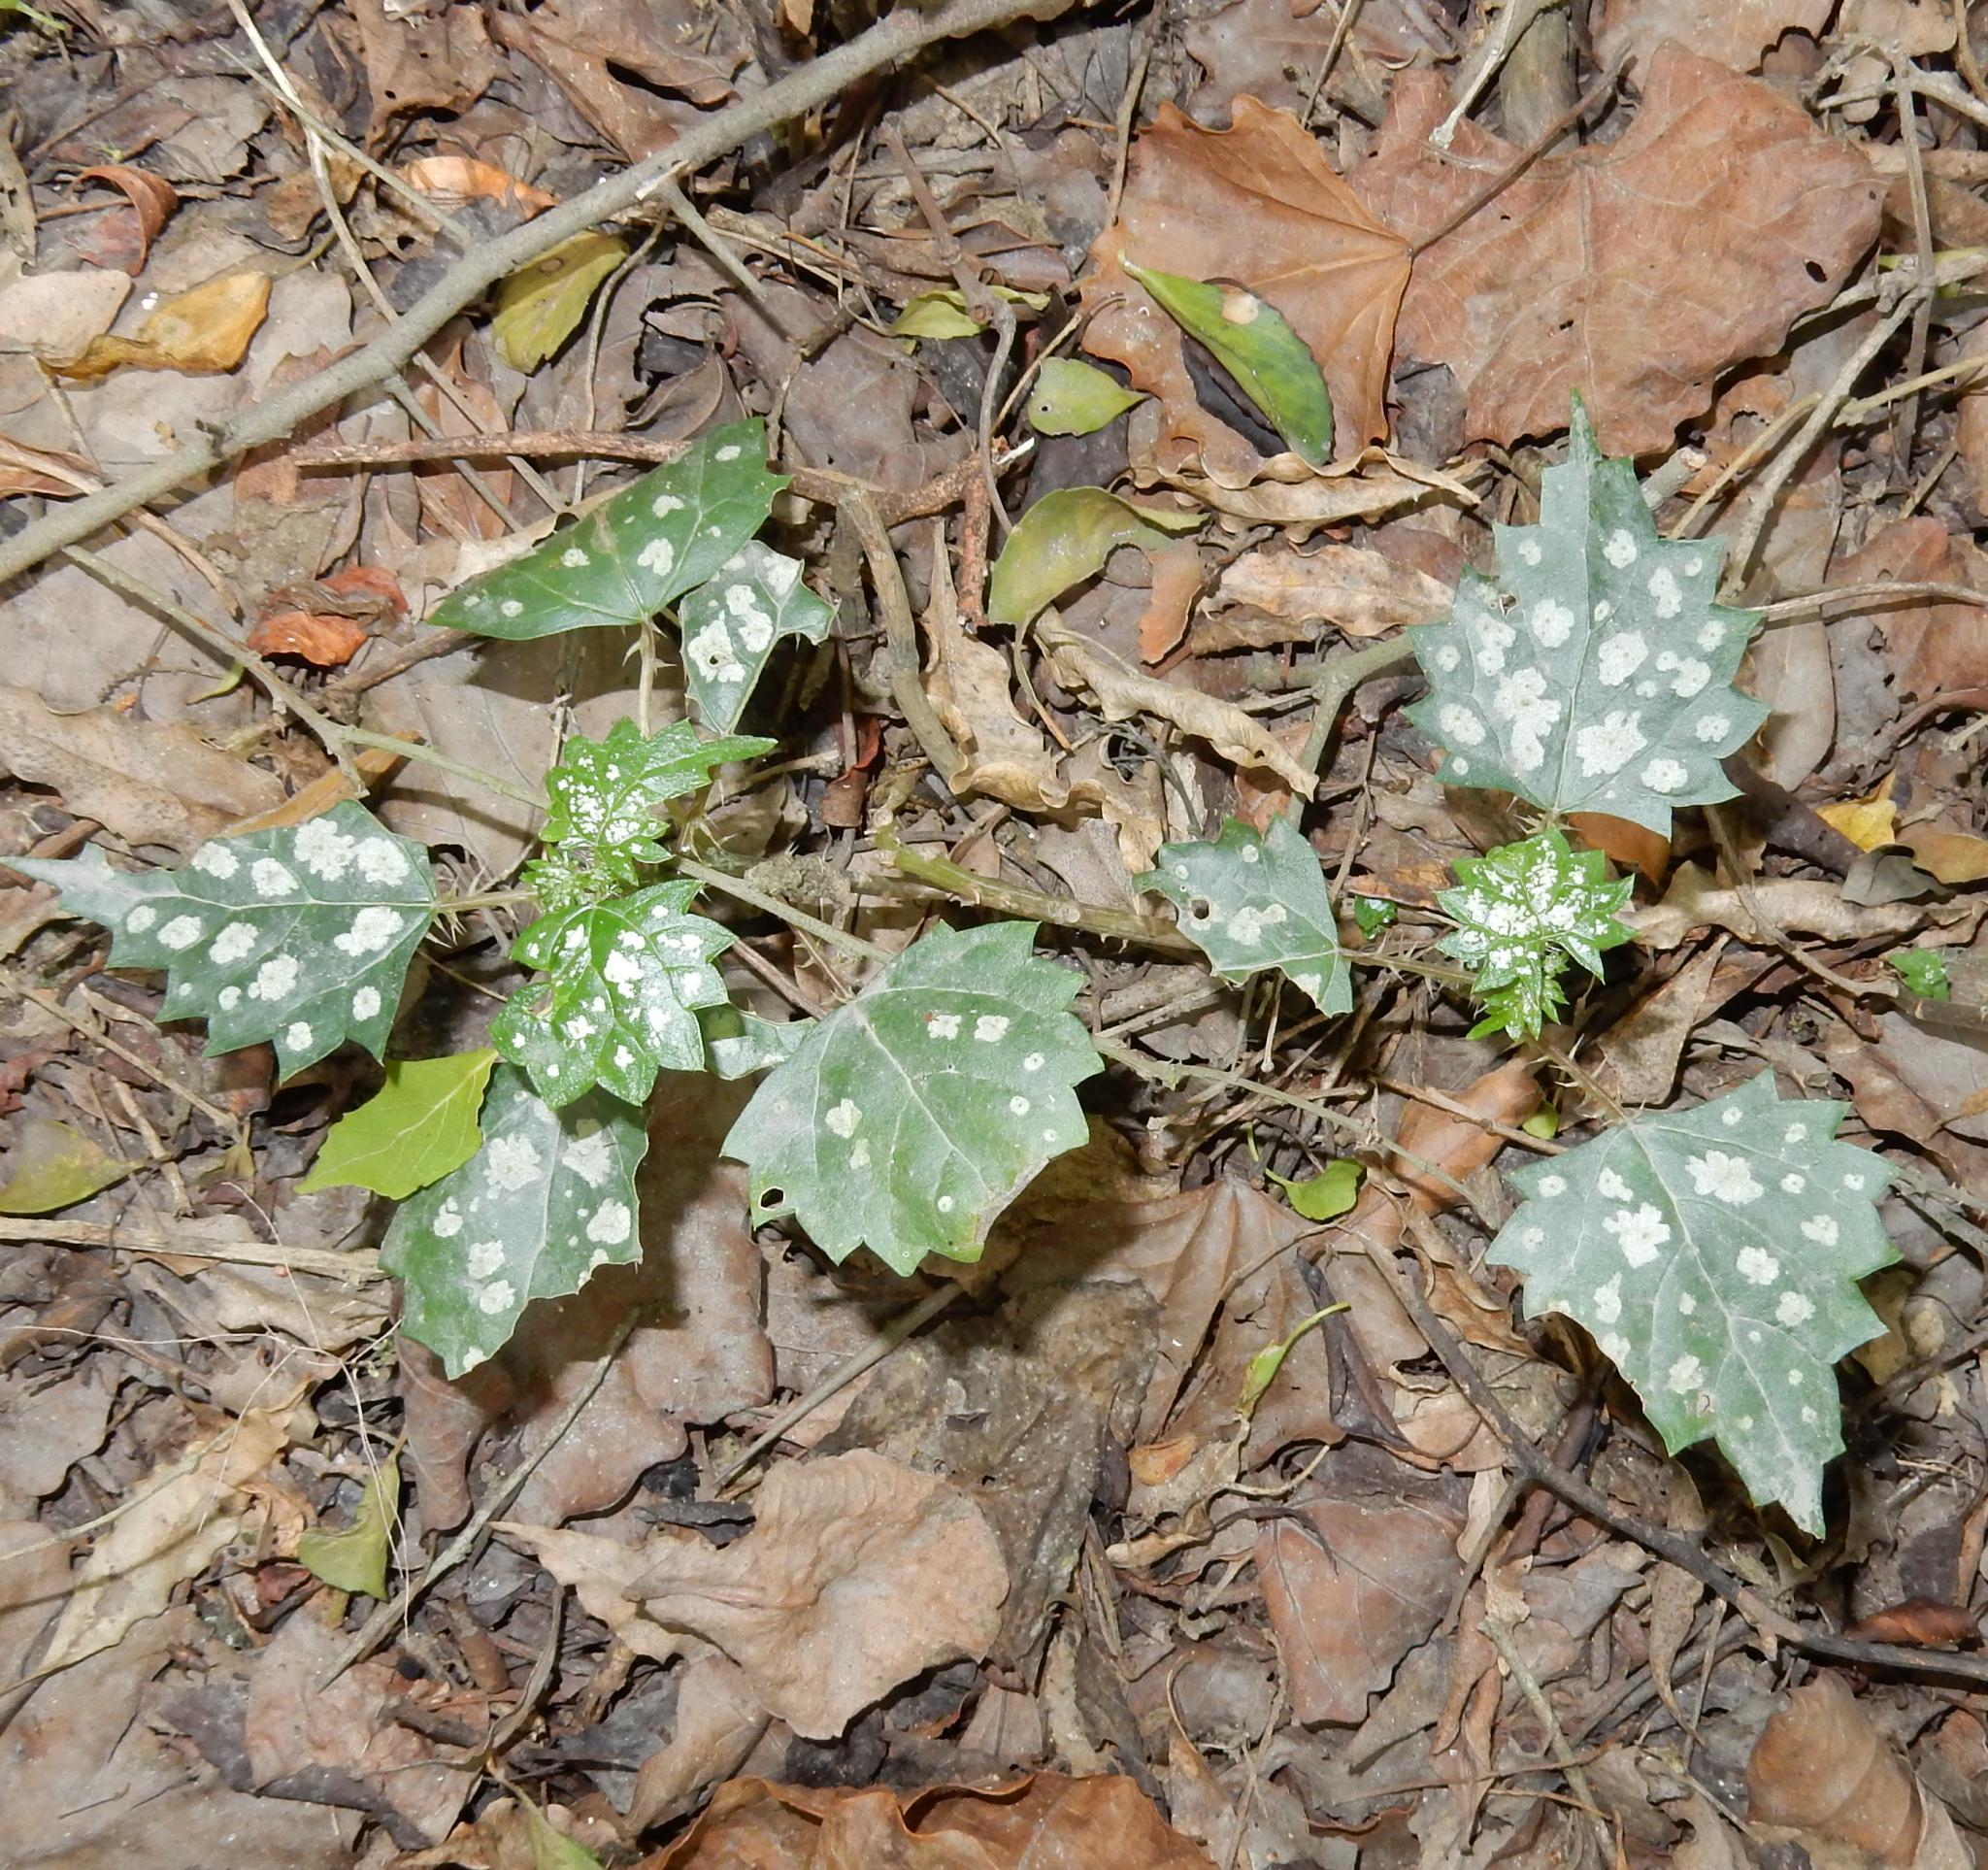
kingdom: Plantae
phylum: Tracheophyta
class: Magnoliopsida
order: Rosales
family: Urticaceae
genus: Laportea
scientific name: Laportea grossa
